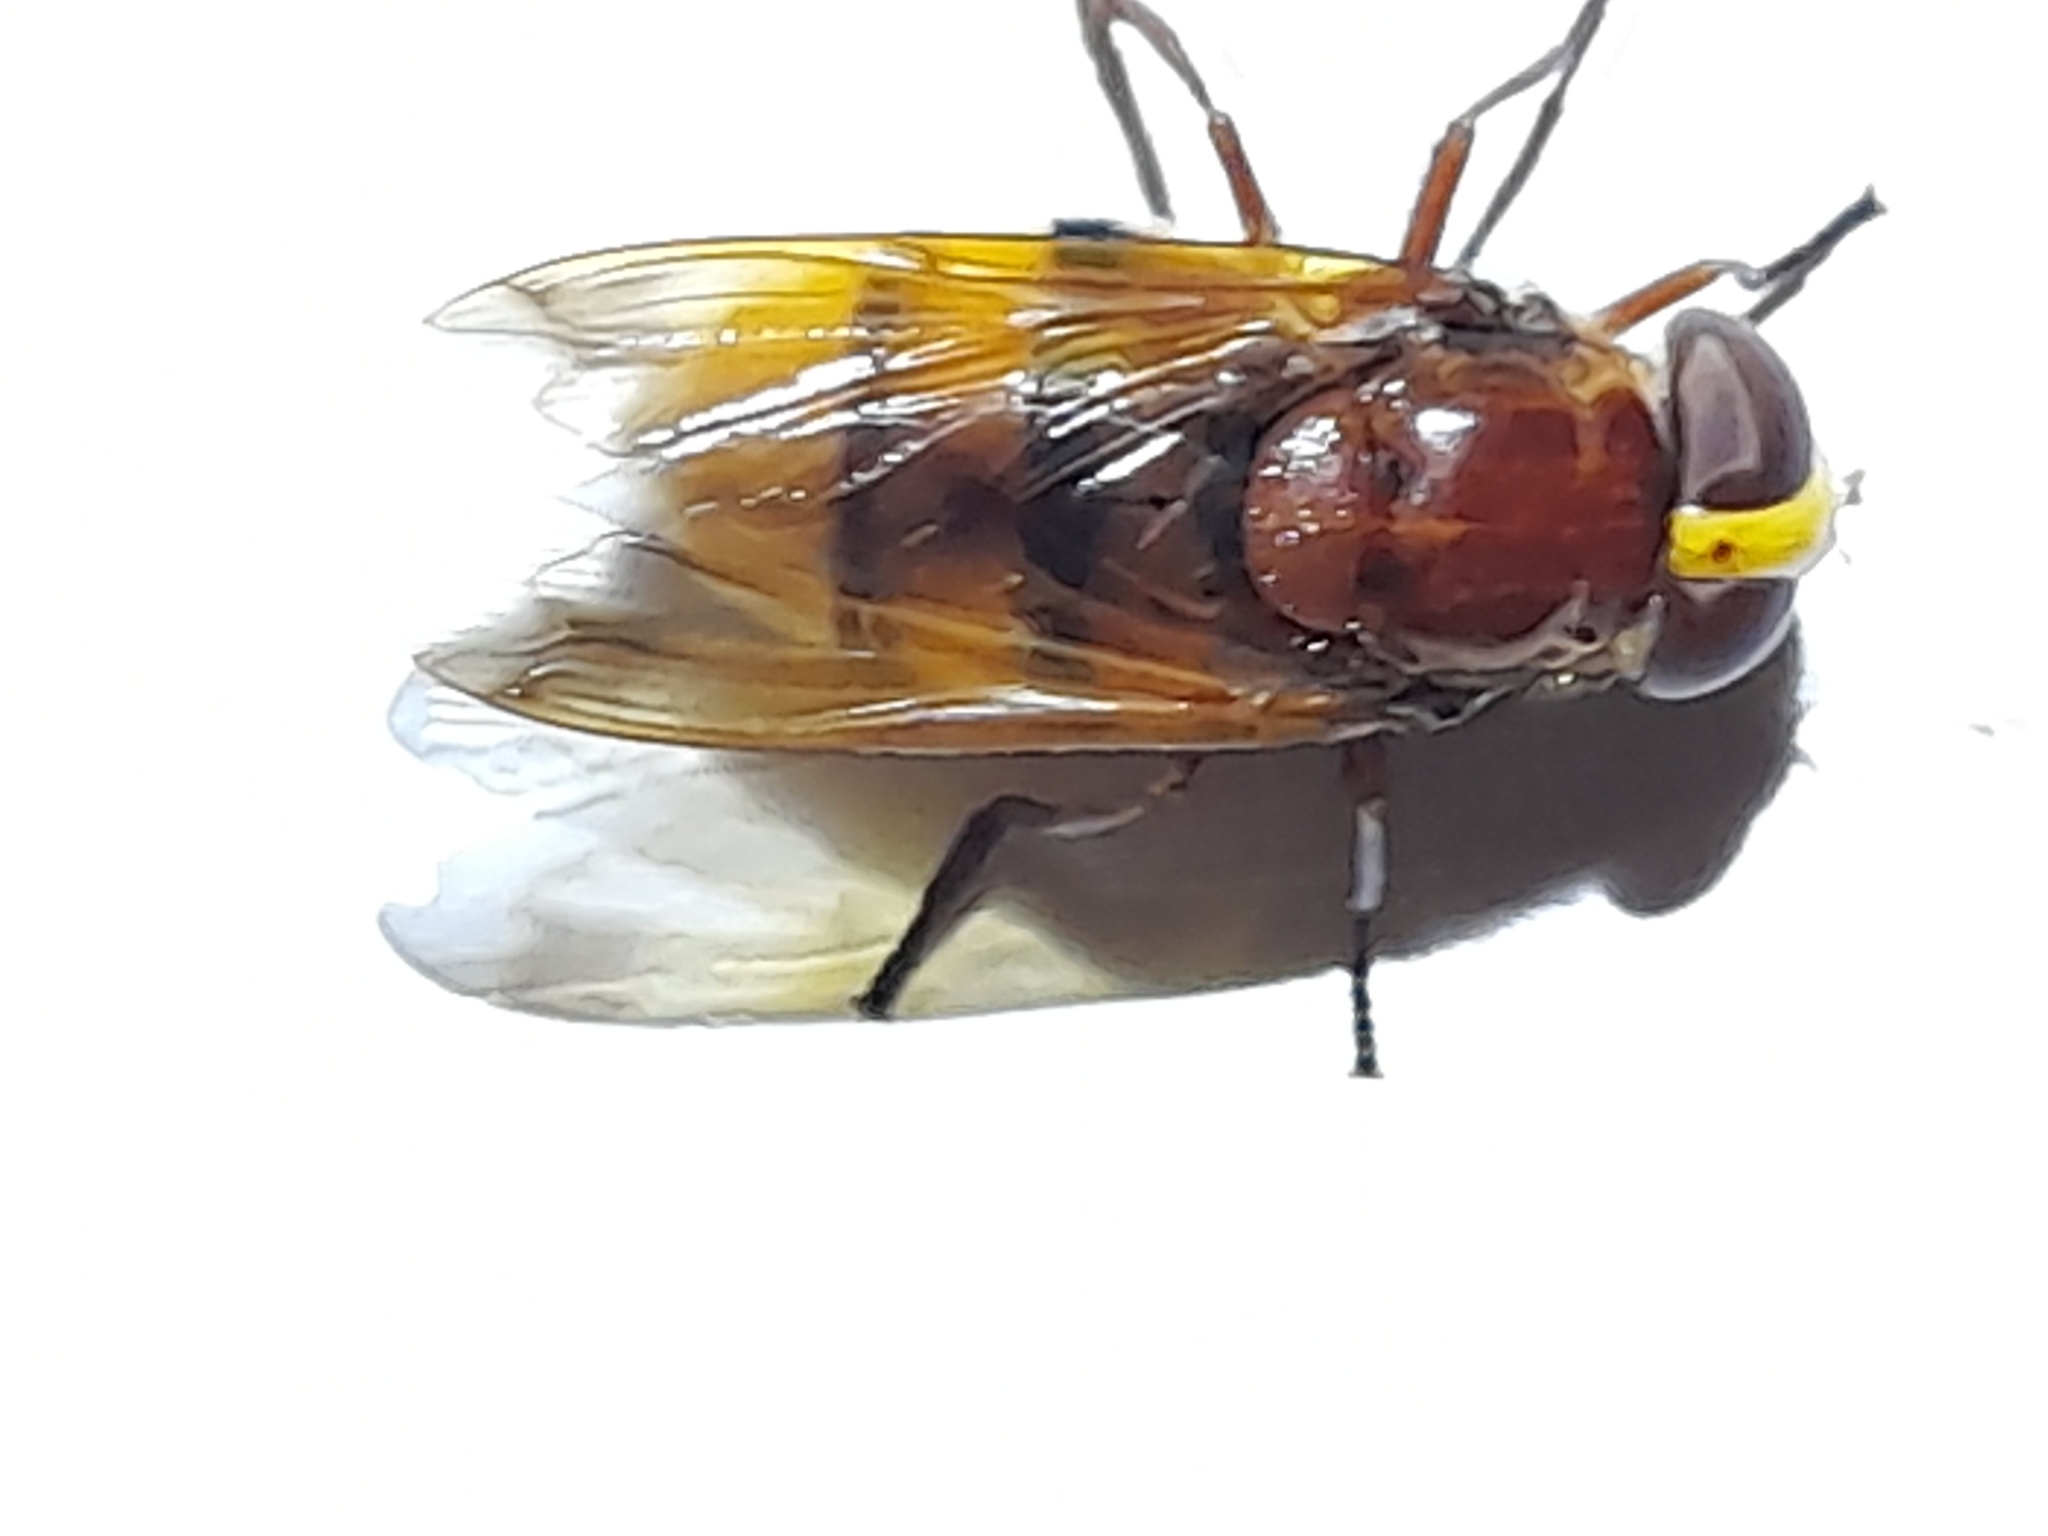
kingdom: Animalia
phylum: Arthropoda
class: Insecta
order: Diptera
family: Syrphidae
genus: Volucella
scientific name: Volucella zonaria
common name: Hornet hoverfly
